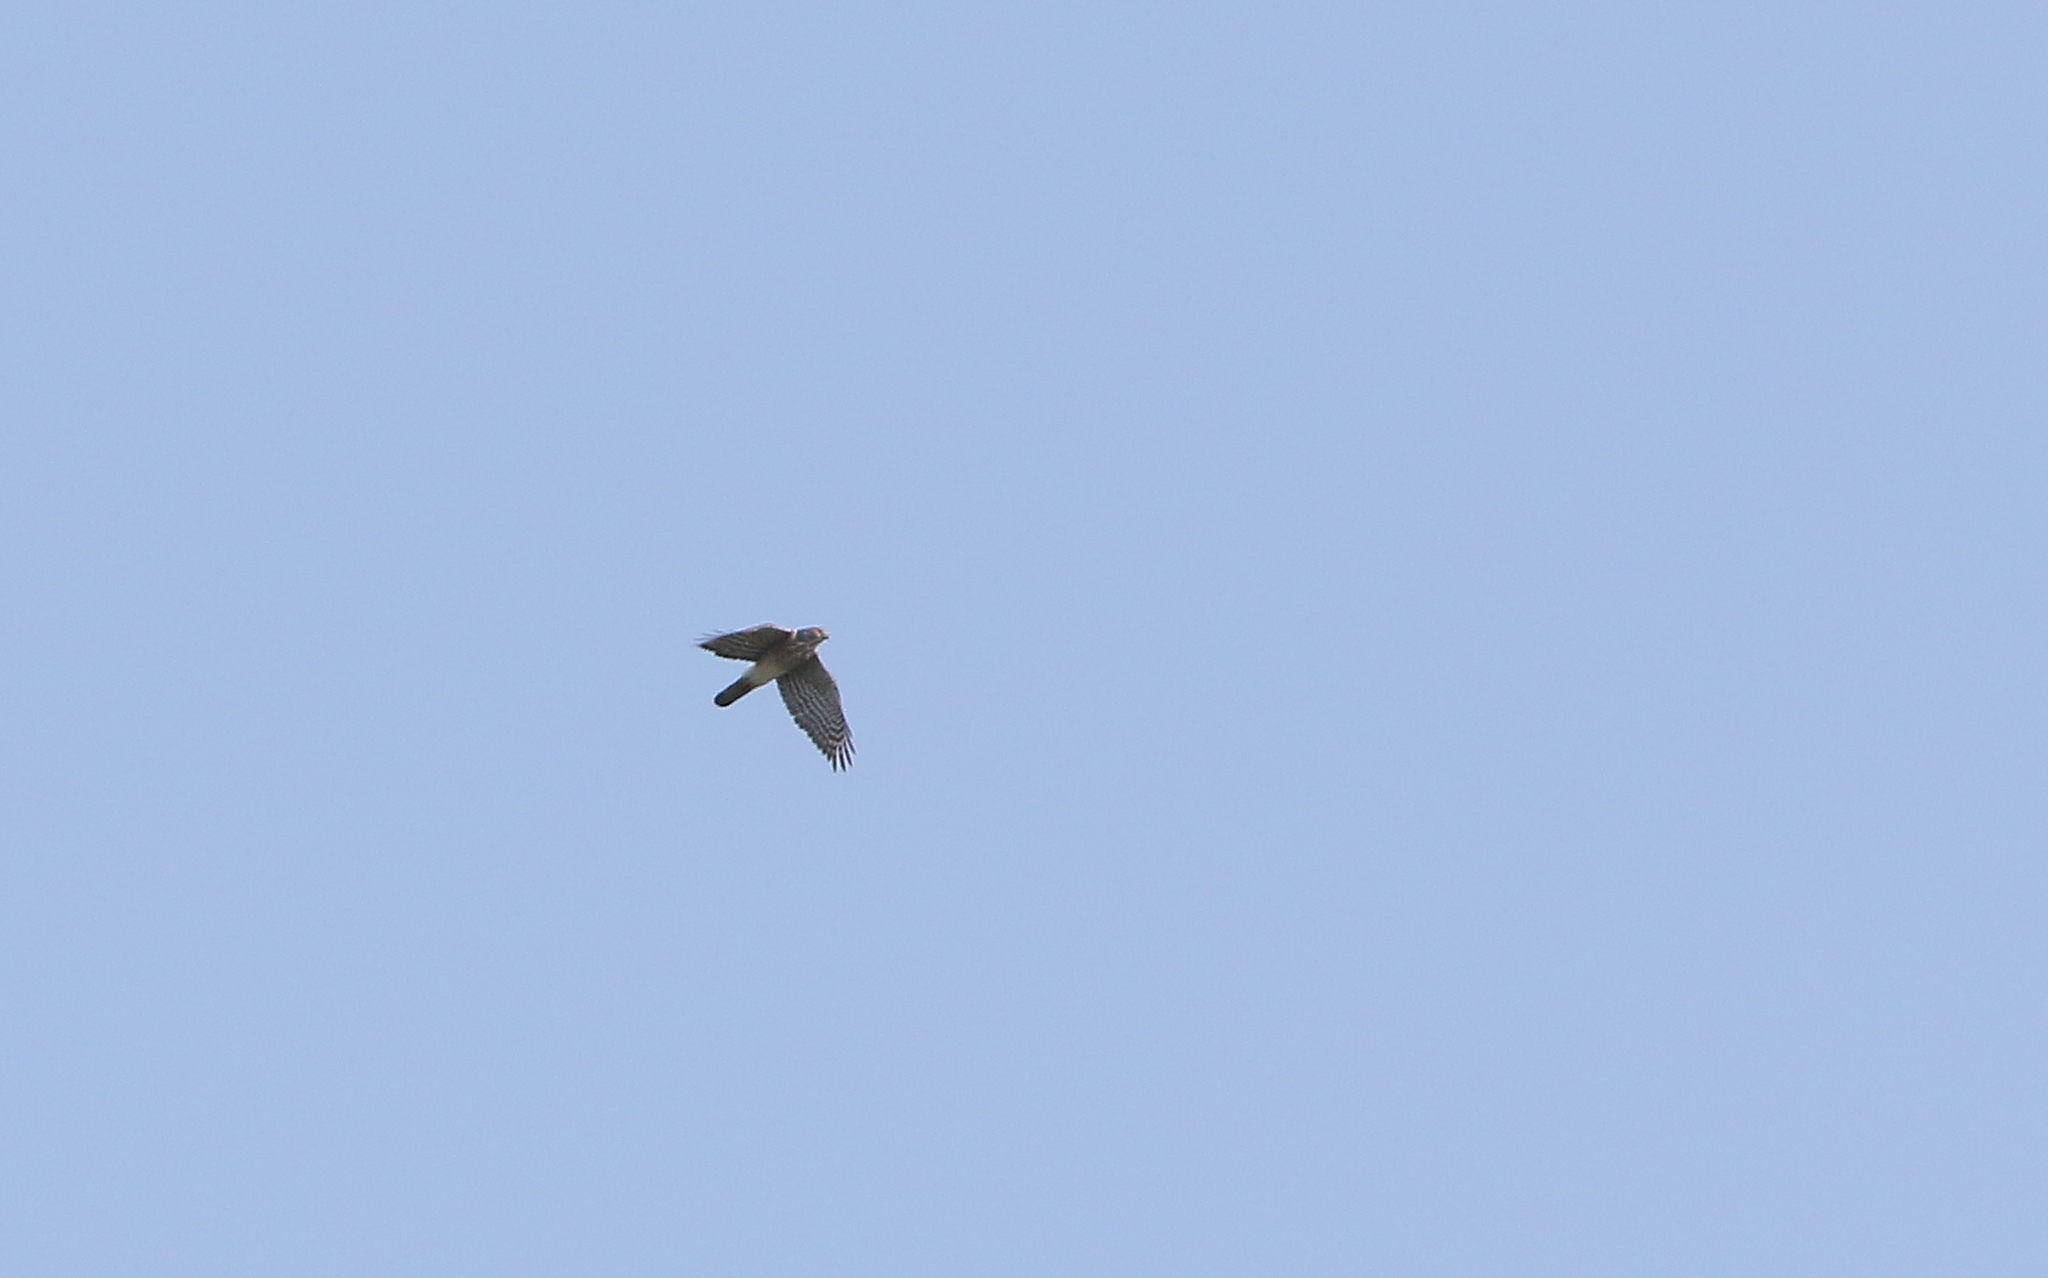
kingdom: Animalia
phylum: Chordata
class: Aves
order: Accipitriformes
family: Accipitridae
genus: Accipiter
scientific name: Accipiter virgatus
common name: Besra
